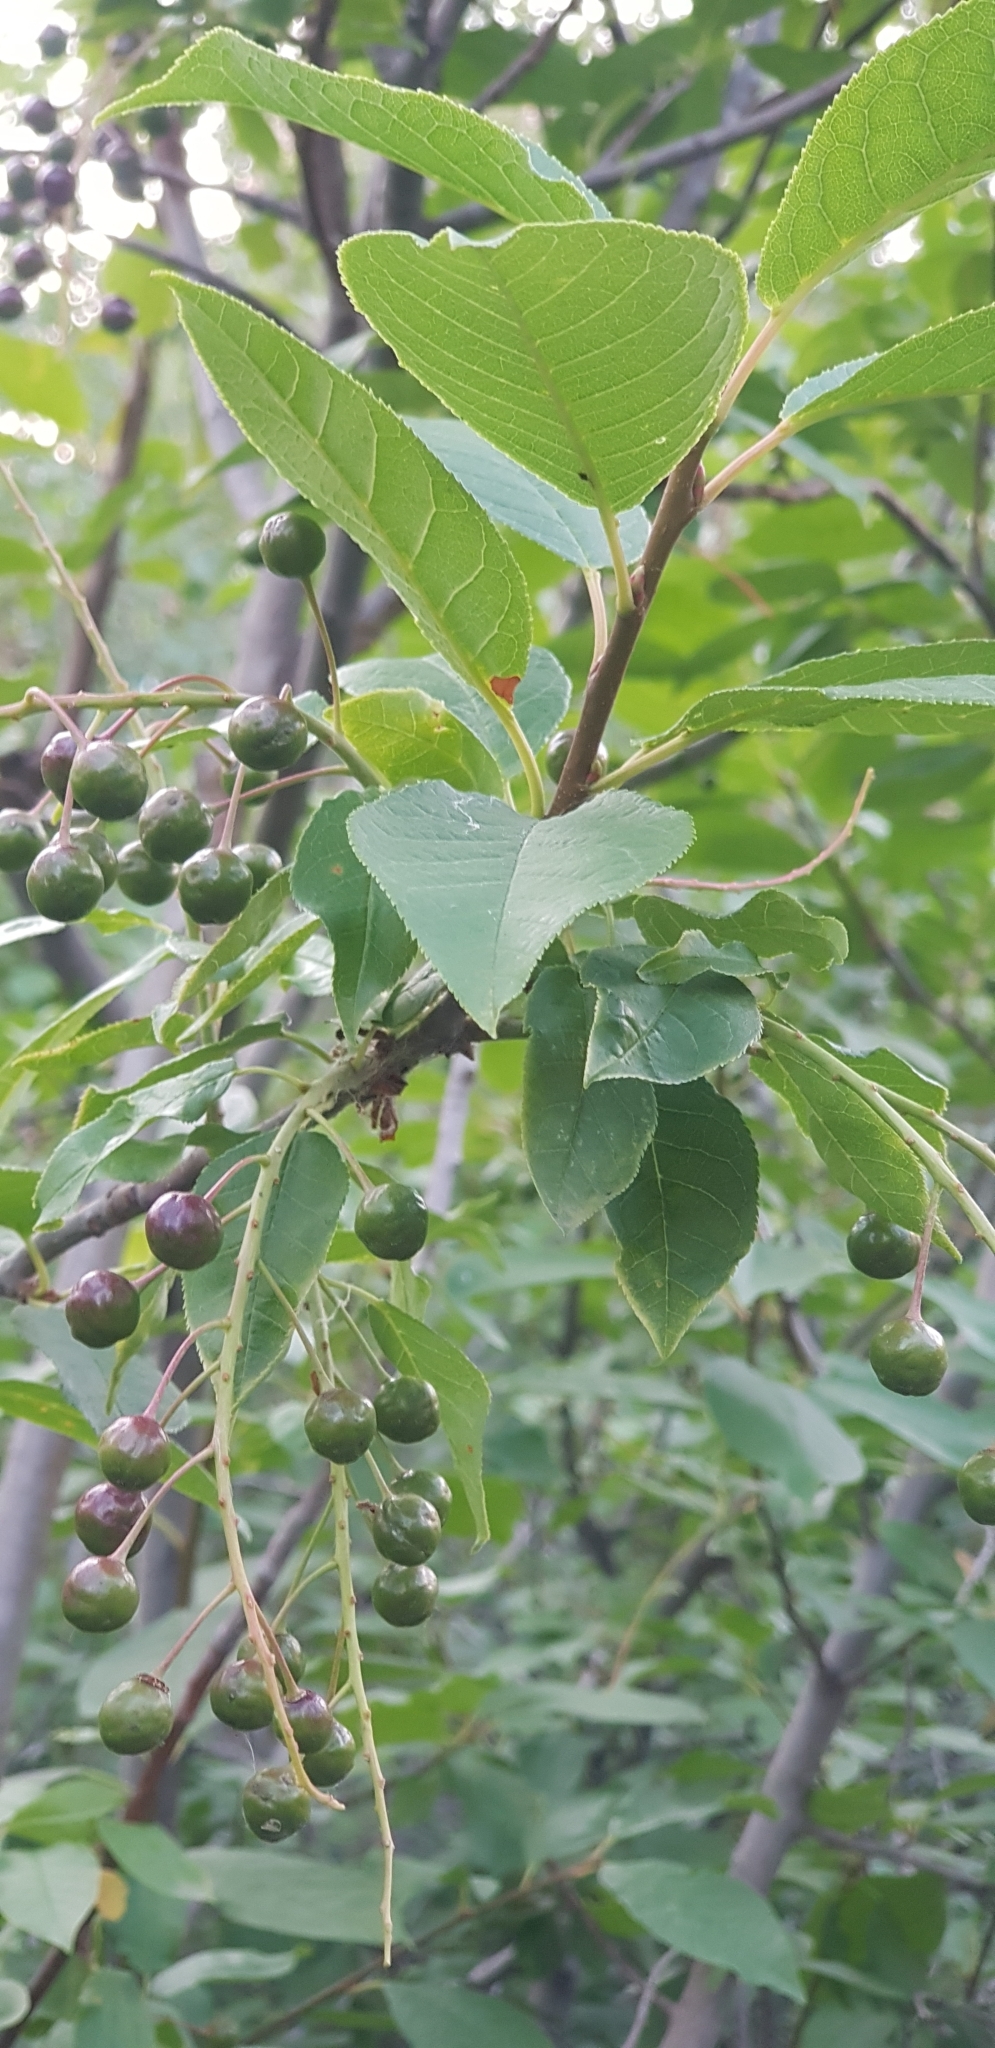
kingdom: Plantae
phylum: Tracheophyta
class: Magnoliopsida
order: Rosales
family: Rosaceae
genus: Prunus
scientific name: Prunus padus
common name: Bird cherry
